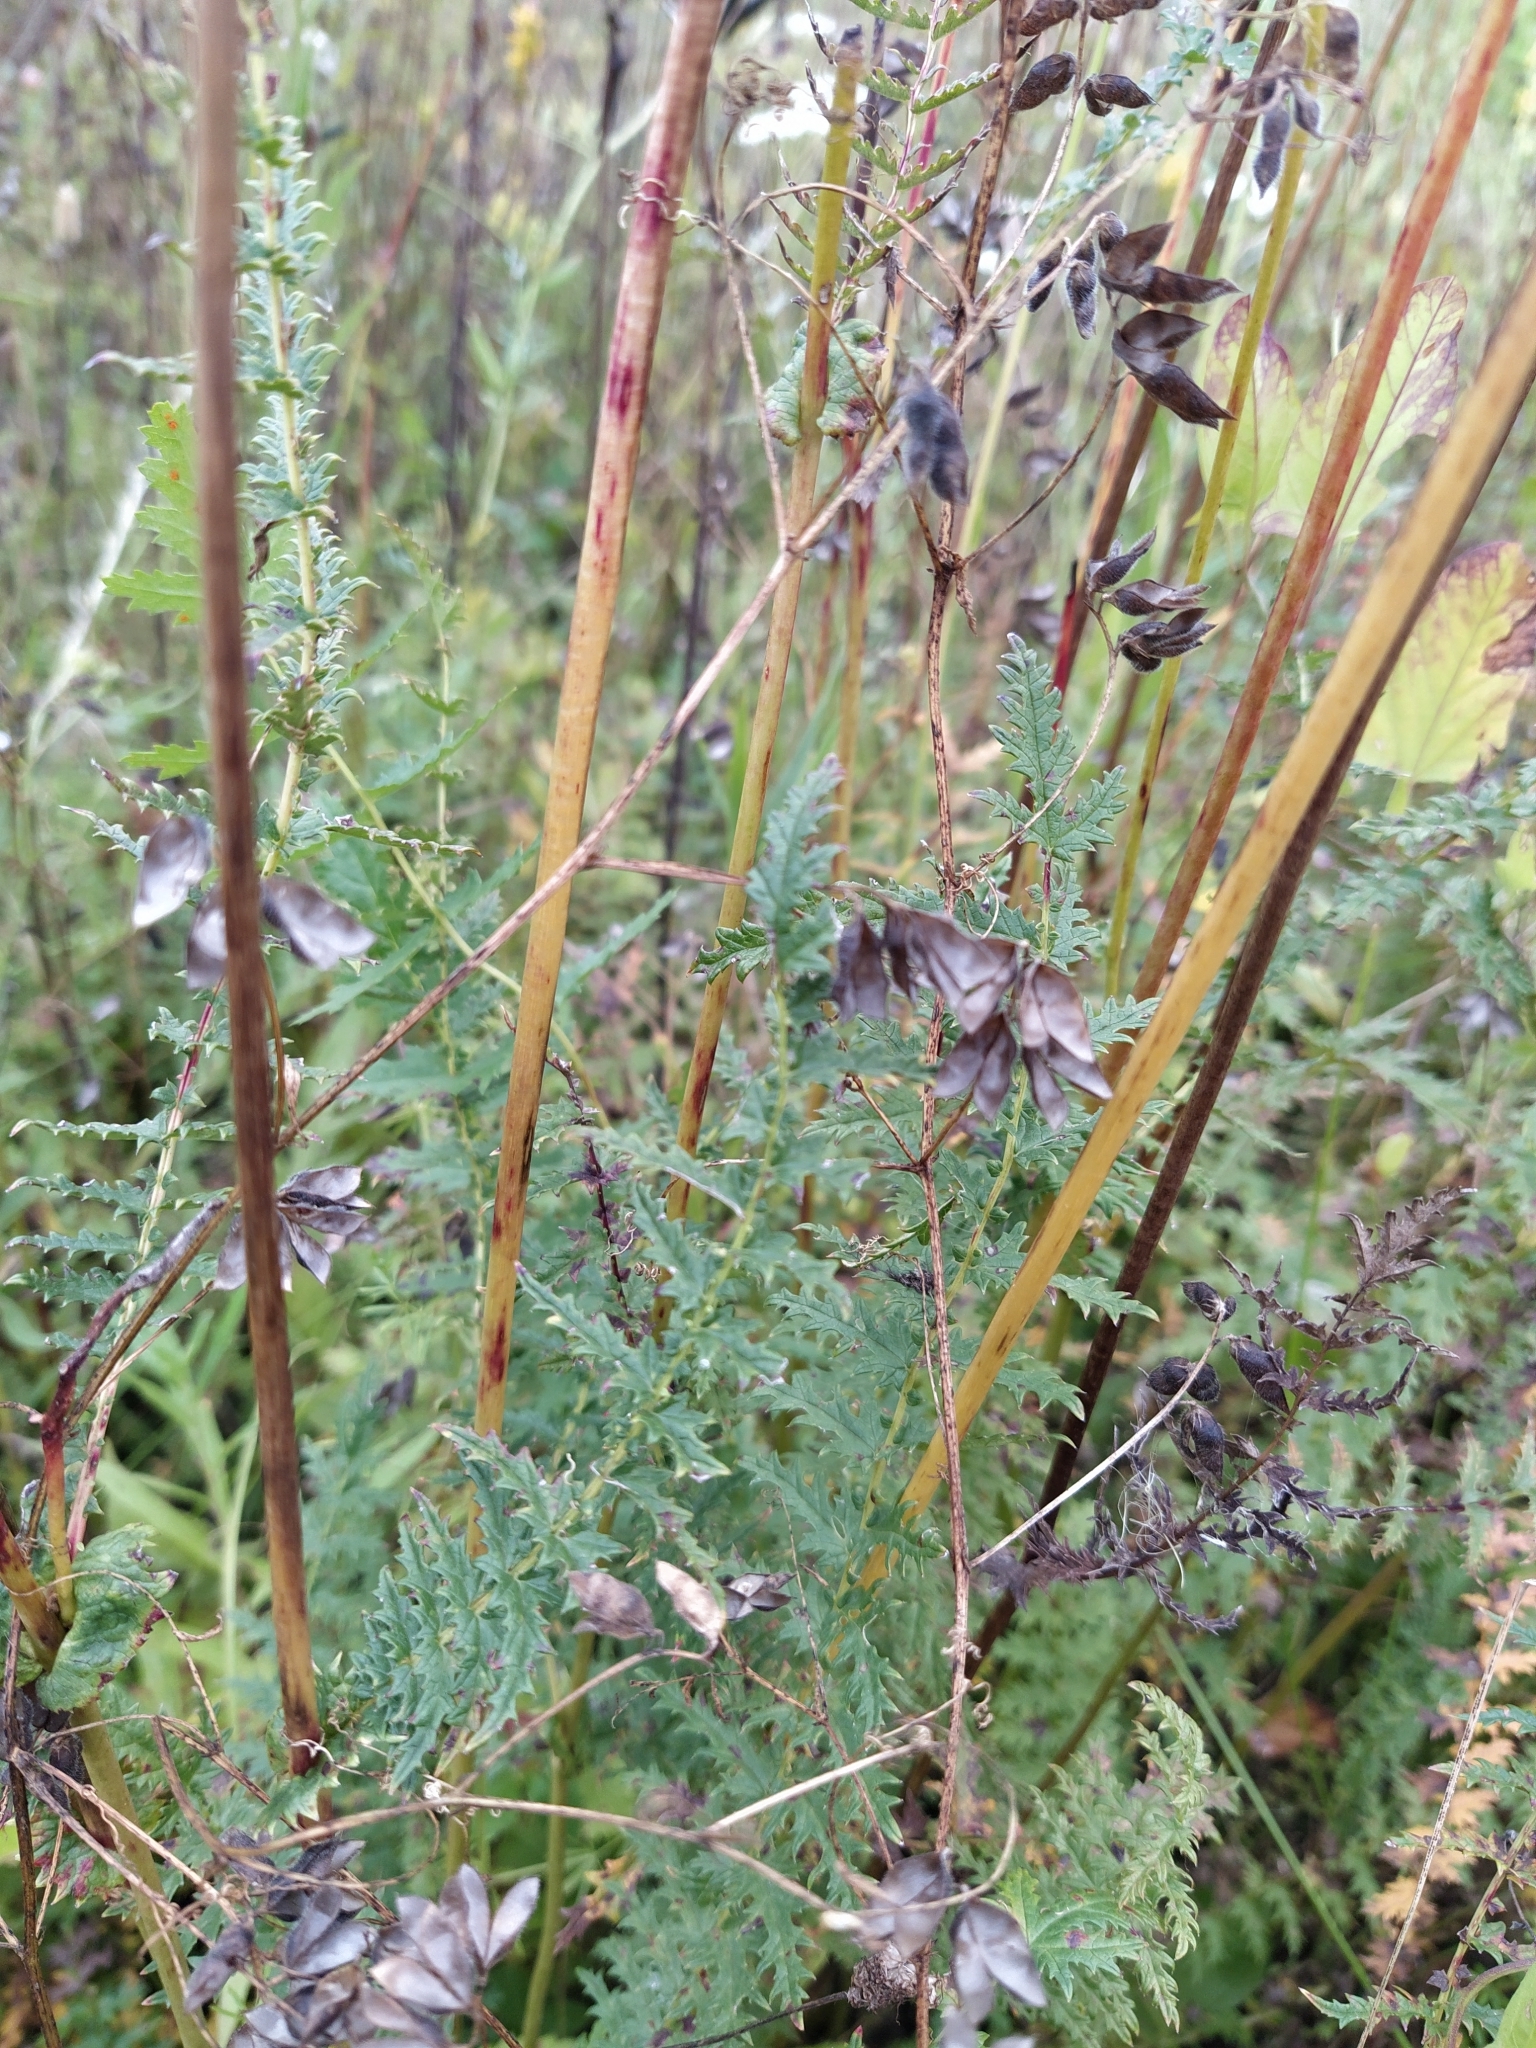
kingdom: Plantae
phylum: Tracheophyta
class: Magnoliopsida
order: Rosales
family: Rosaceae
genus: Filipendula
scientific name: Filipendula vulgaris
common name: Dropwort
